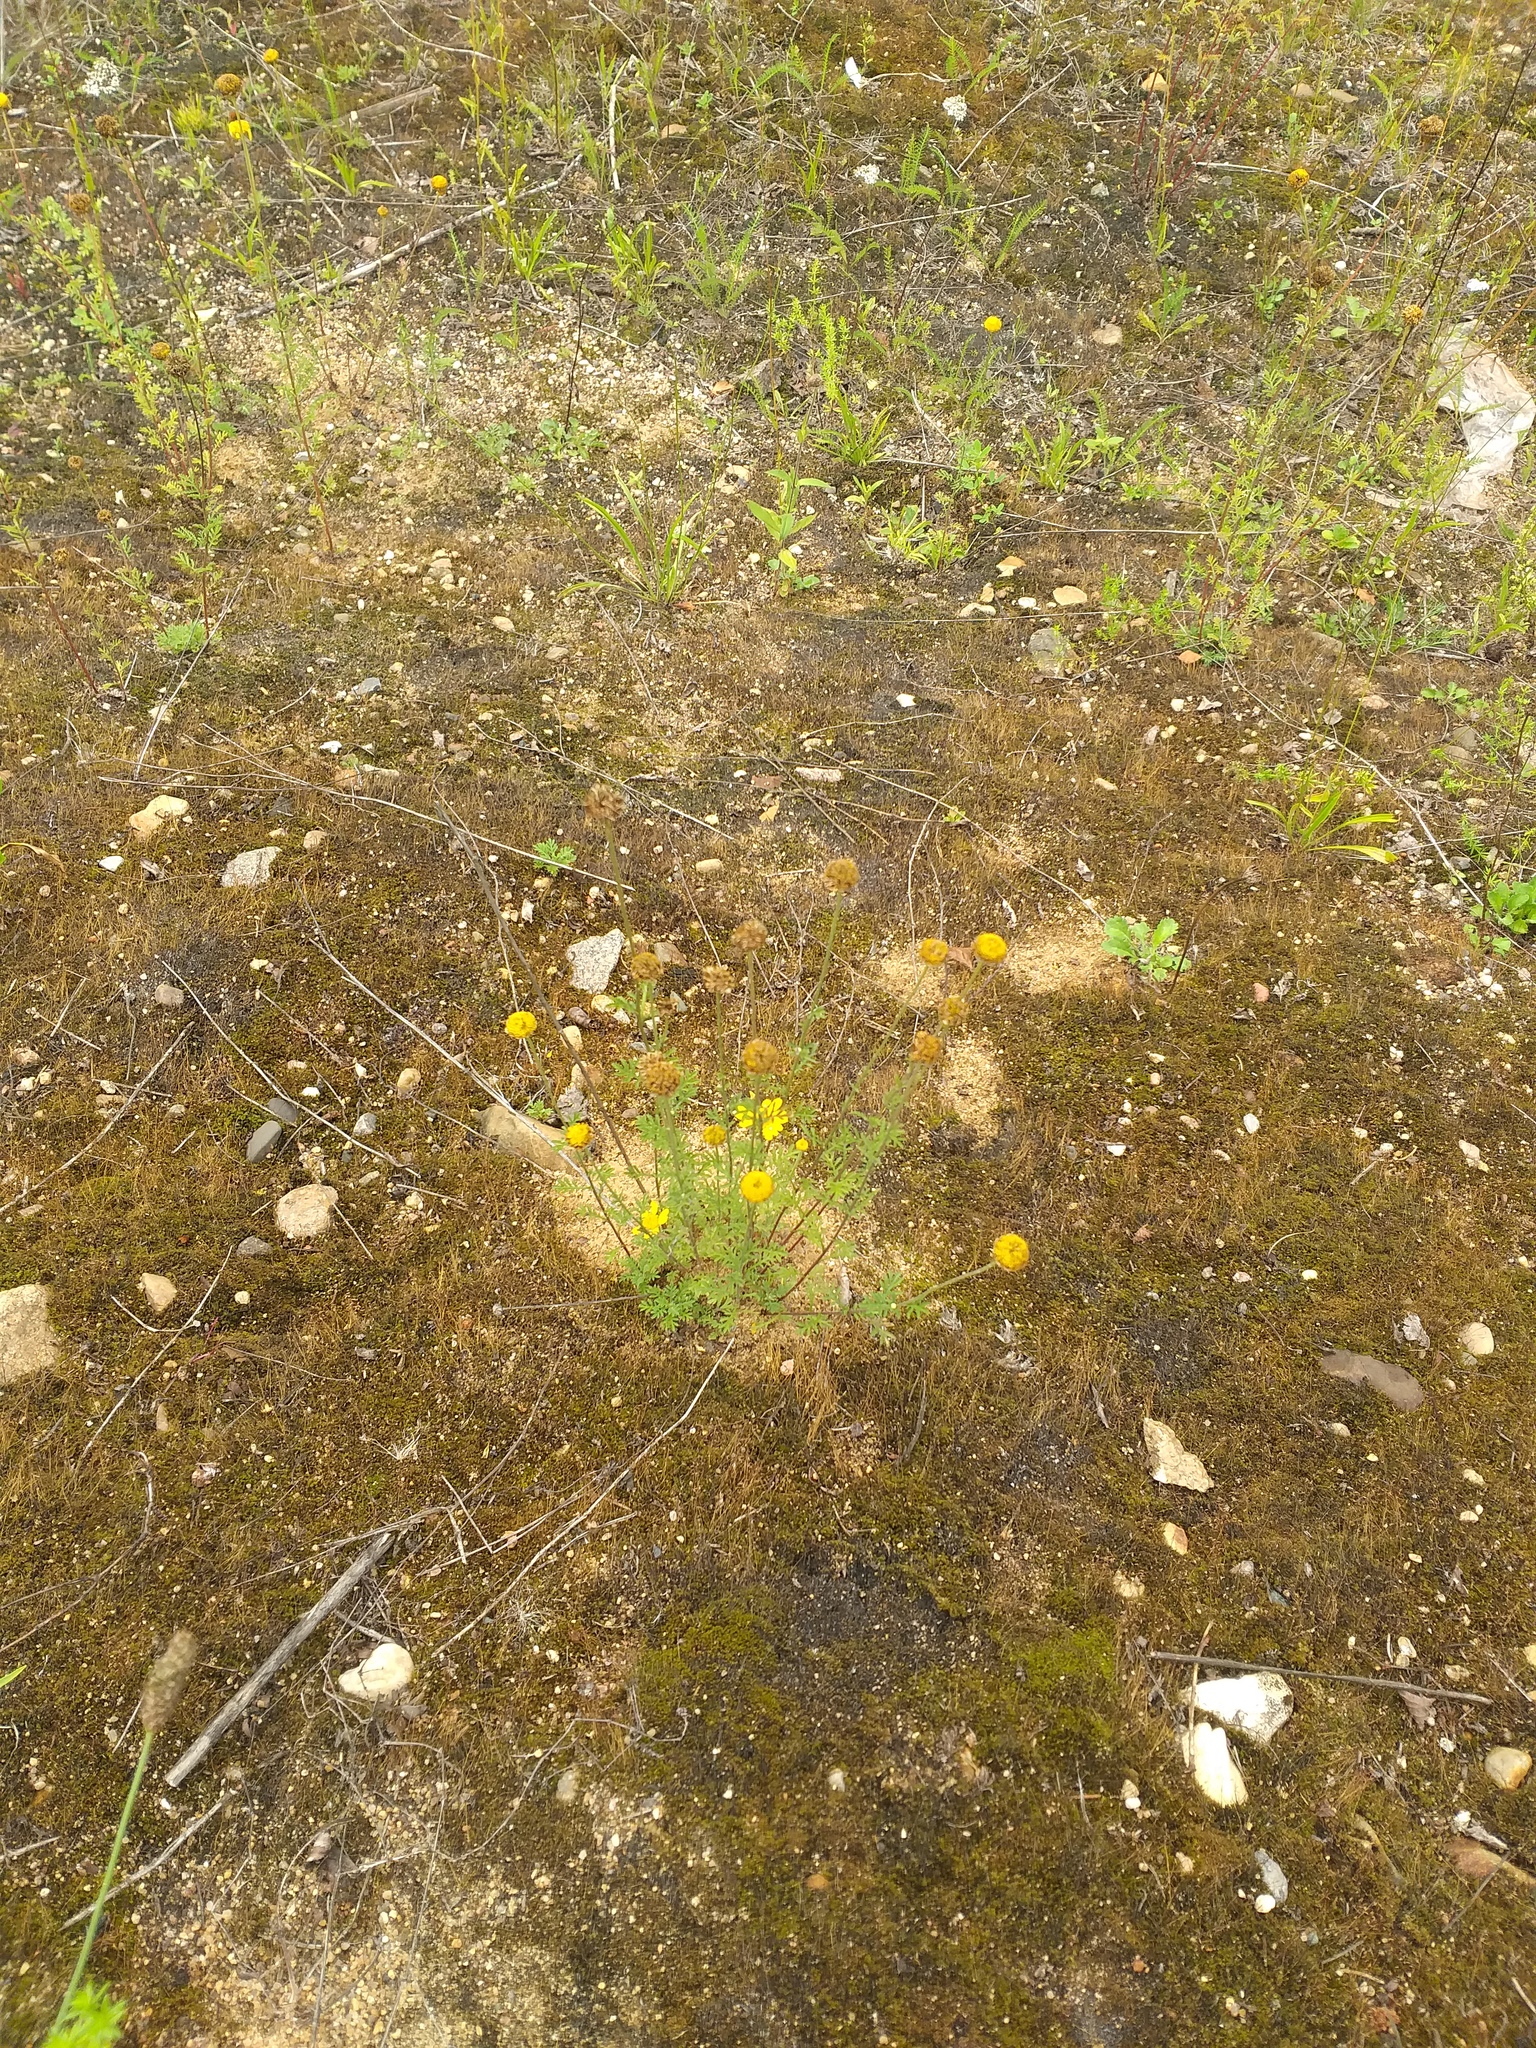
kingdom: Plantae
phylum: Tracheophyta
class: Magnoliopsida
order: Asterales
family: Asteraceae
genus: Cota
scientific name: Cota tinctoria
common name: Golden chamomile
